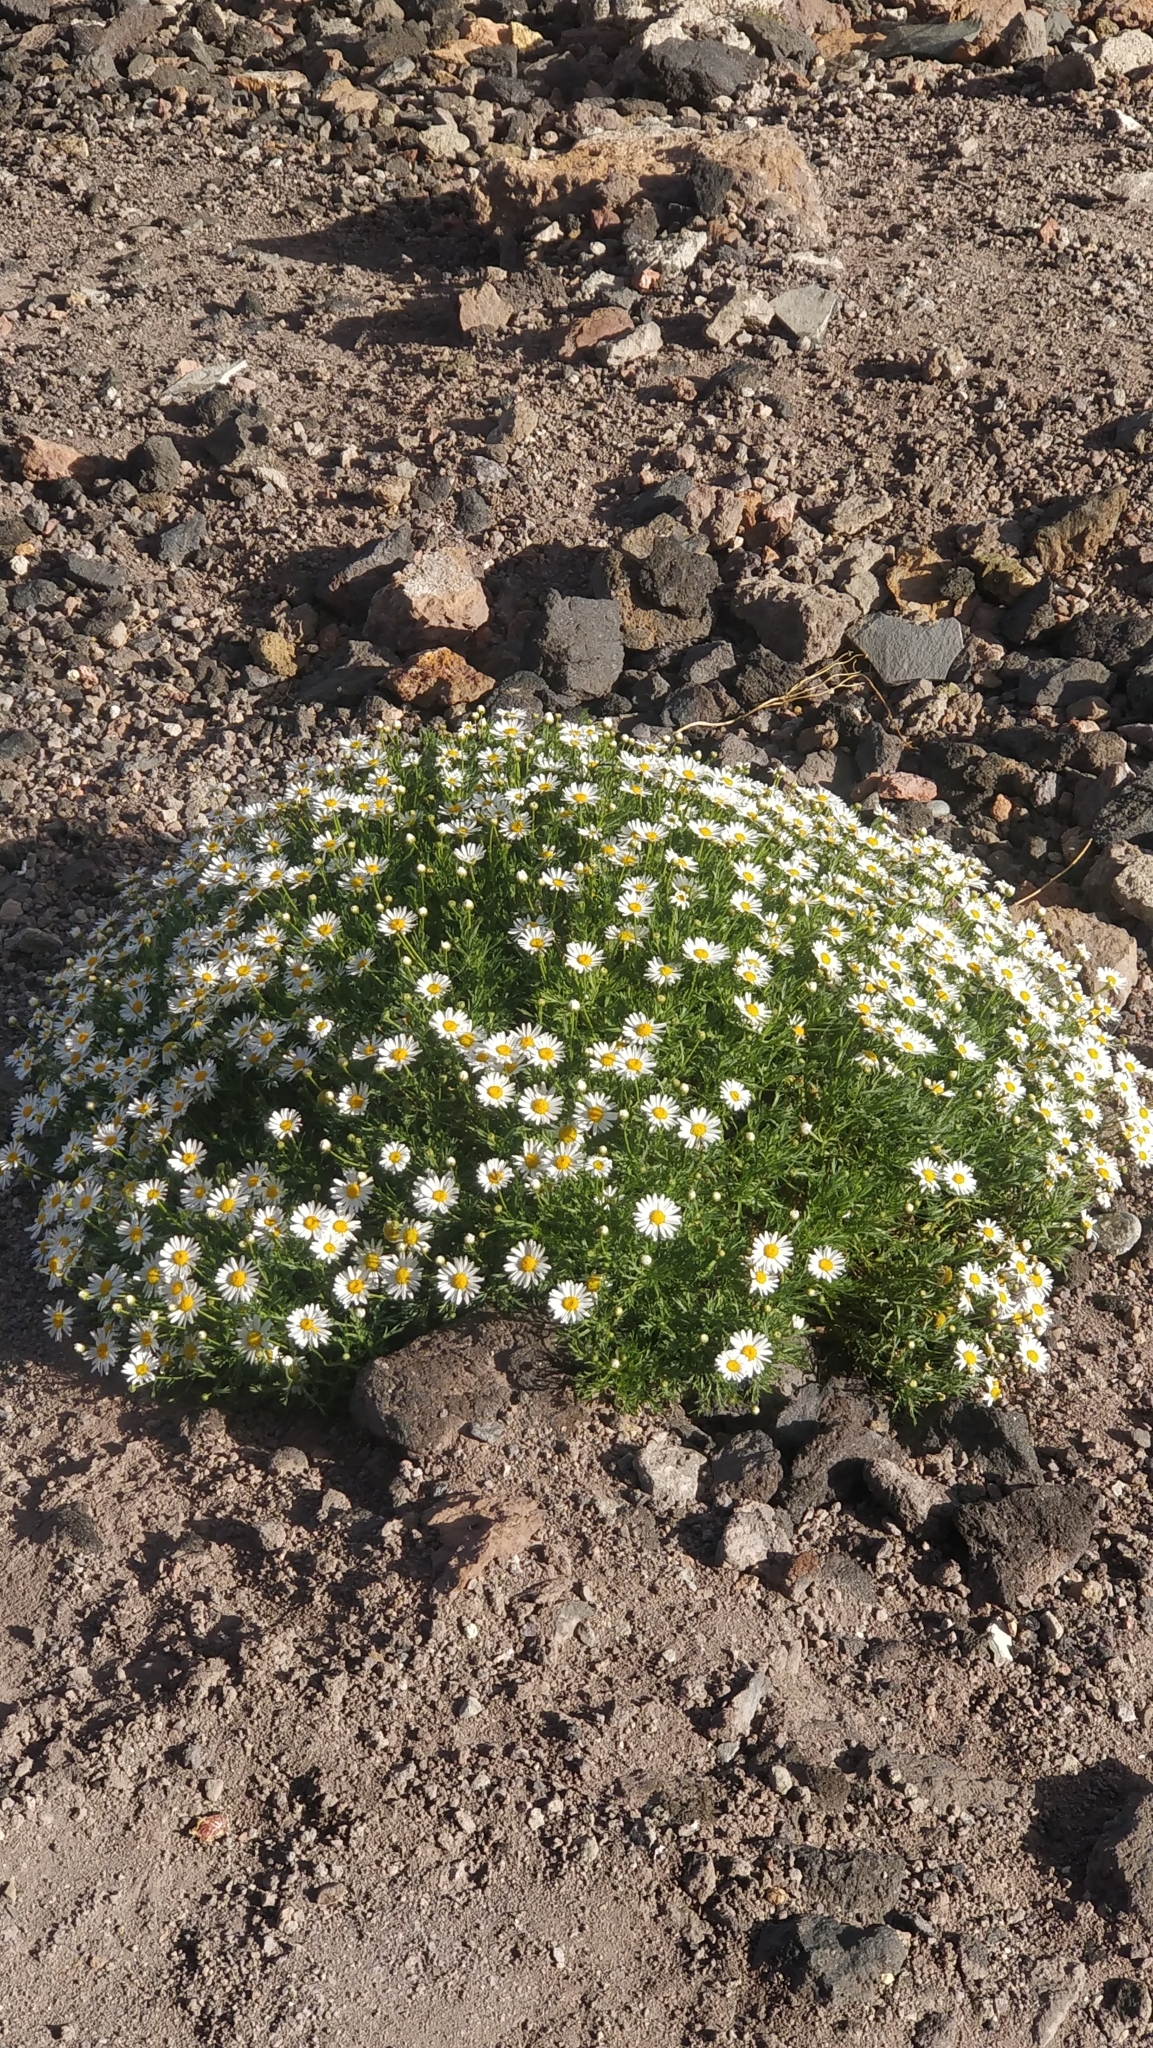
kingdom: Plantae
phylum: Tracheophyta
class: Magnoliopsida
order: Asterales
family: Asteraceae
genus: Argyranthemum
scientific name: Argyranthemum tenerifae
